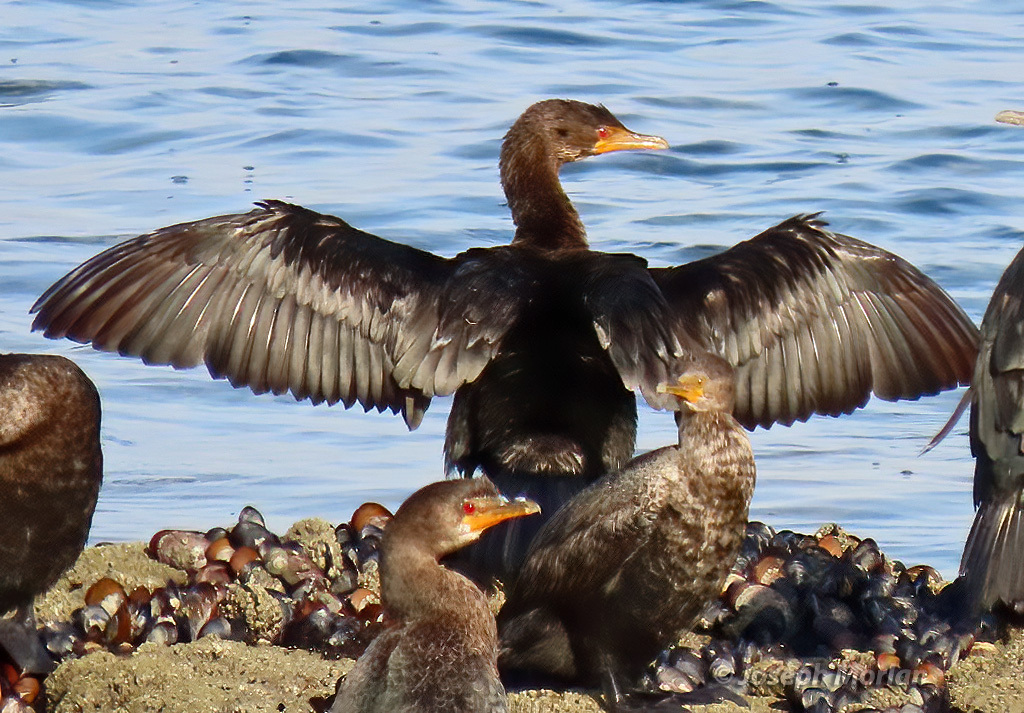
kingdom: Animalia
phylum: Chordata
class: Aves
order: Suliformes
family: Phalacrocoracidae
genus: Microcarbo
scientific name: Microcarbo coronatus
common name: Crowned cormorant
